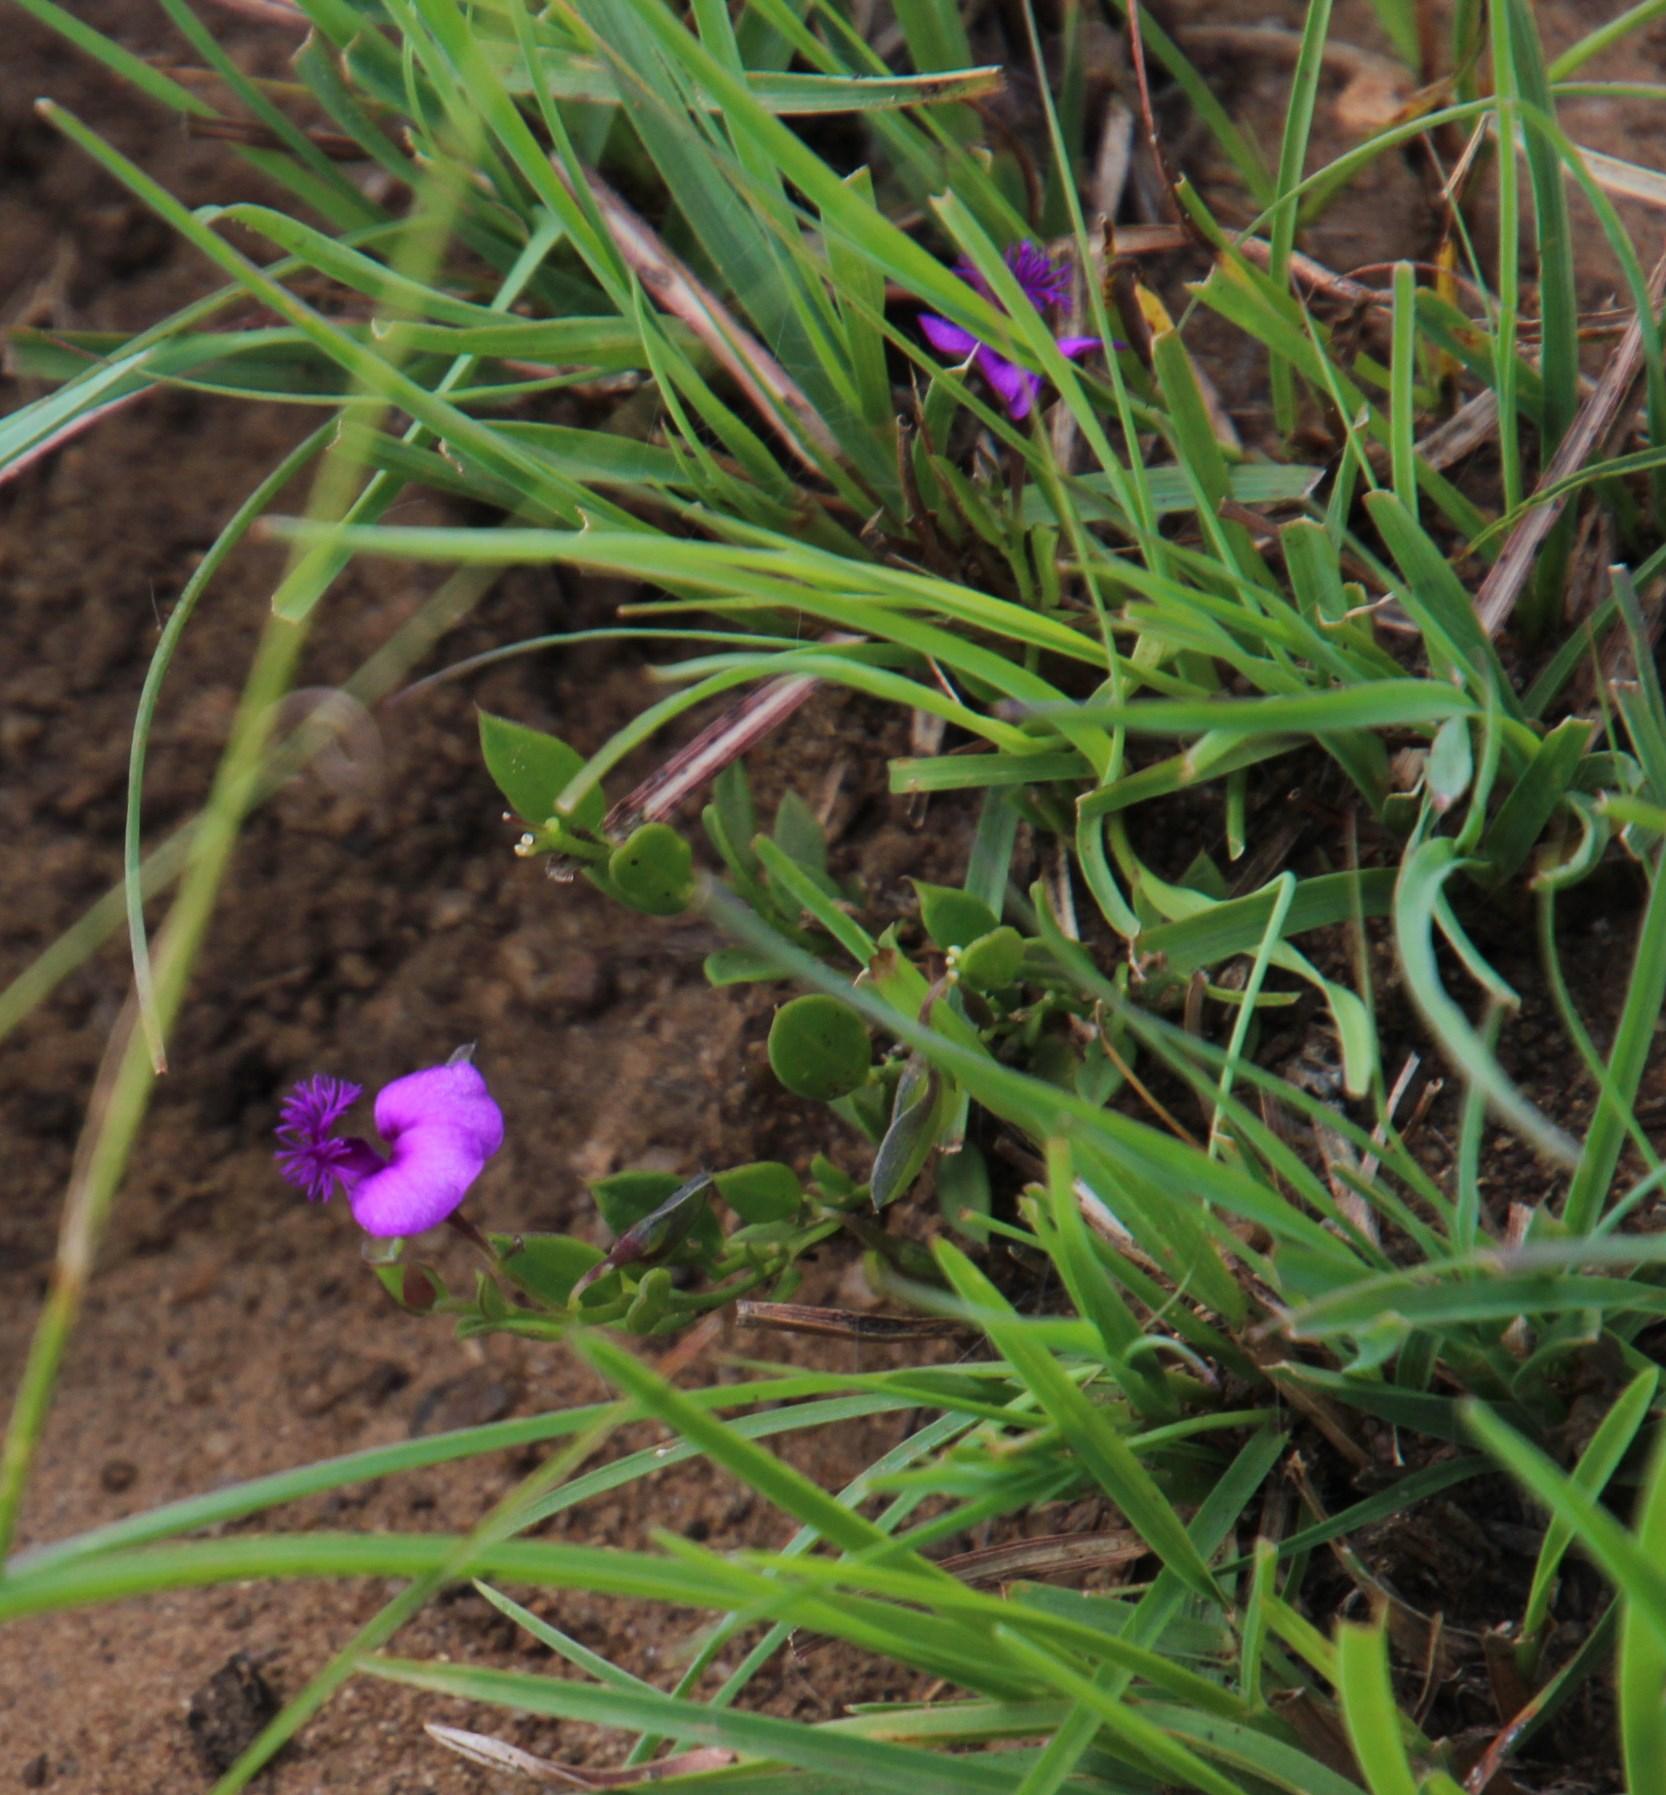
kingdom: Plantae
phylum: Tracheophyta
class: Magnoliopsida
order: Fabales
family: Polygalaceae
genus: Polygala
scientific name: Polygala amatymbica
